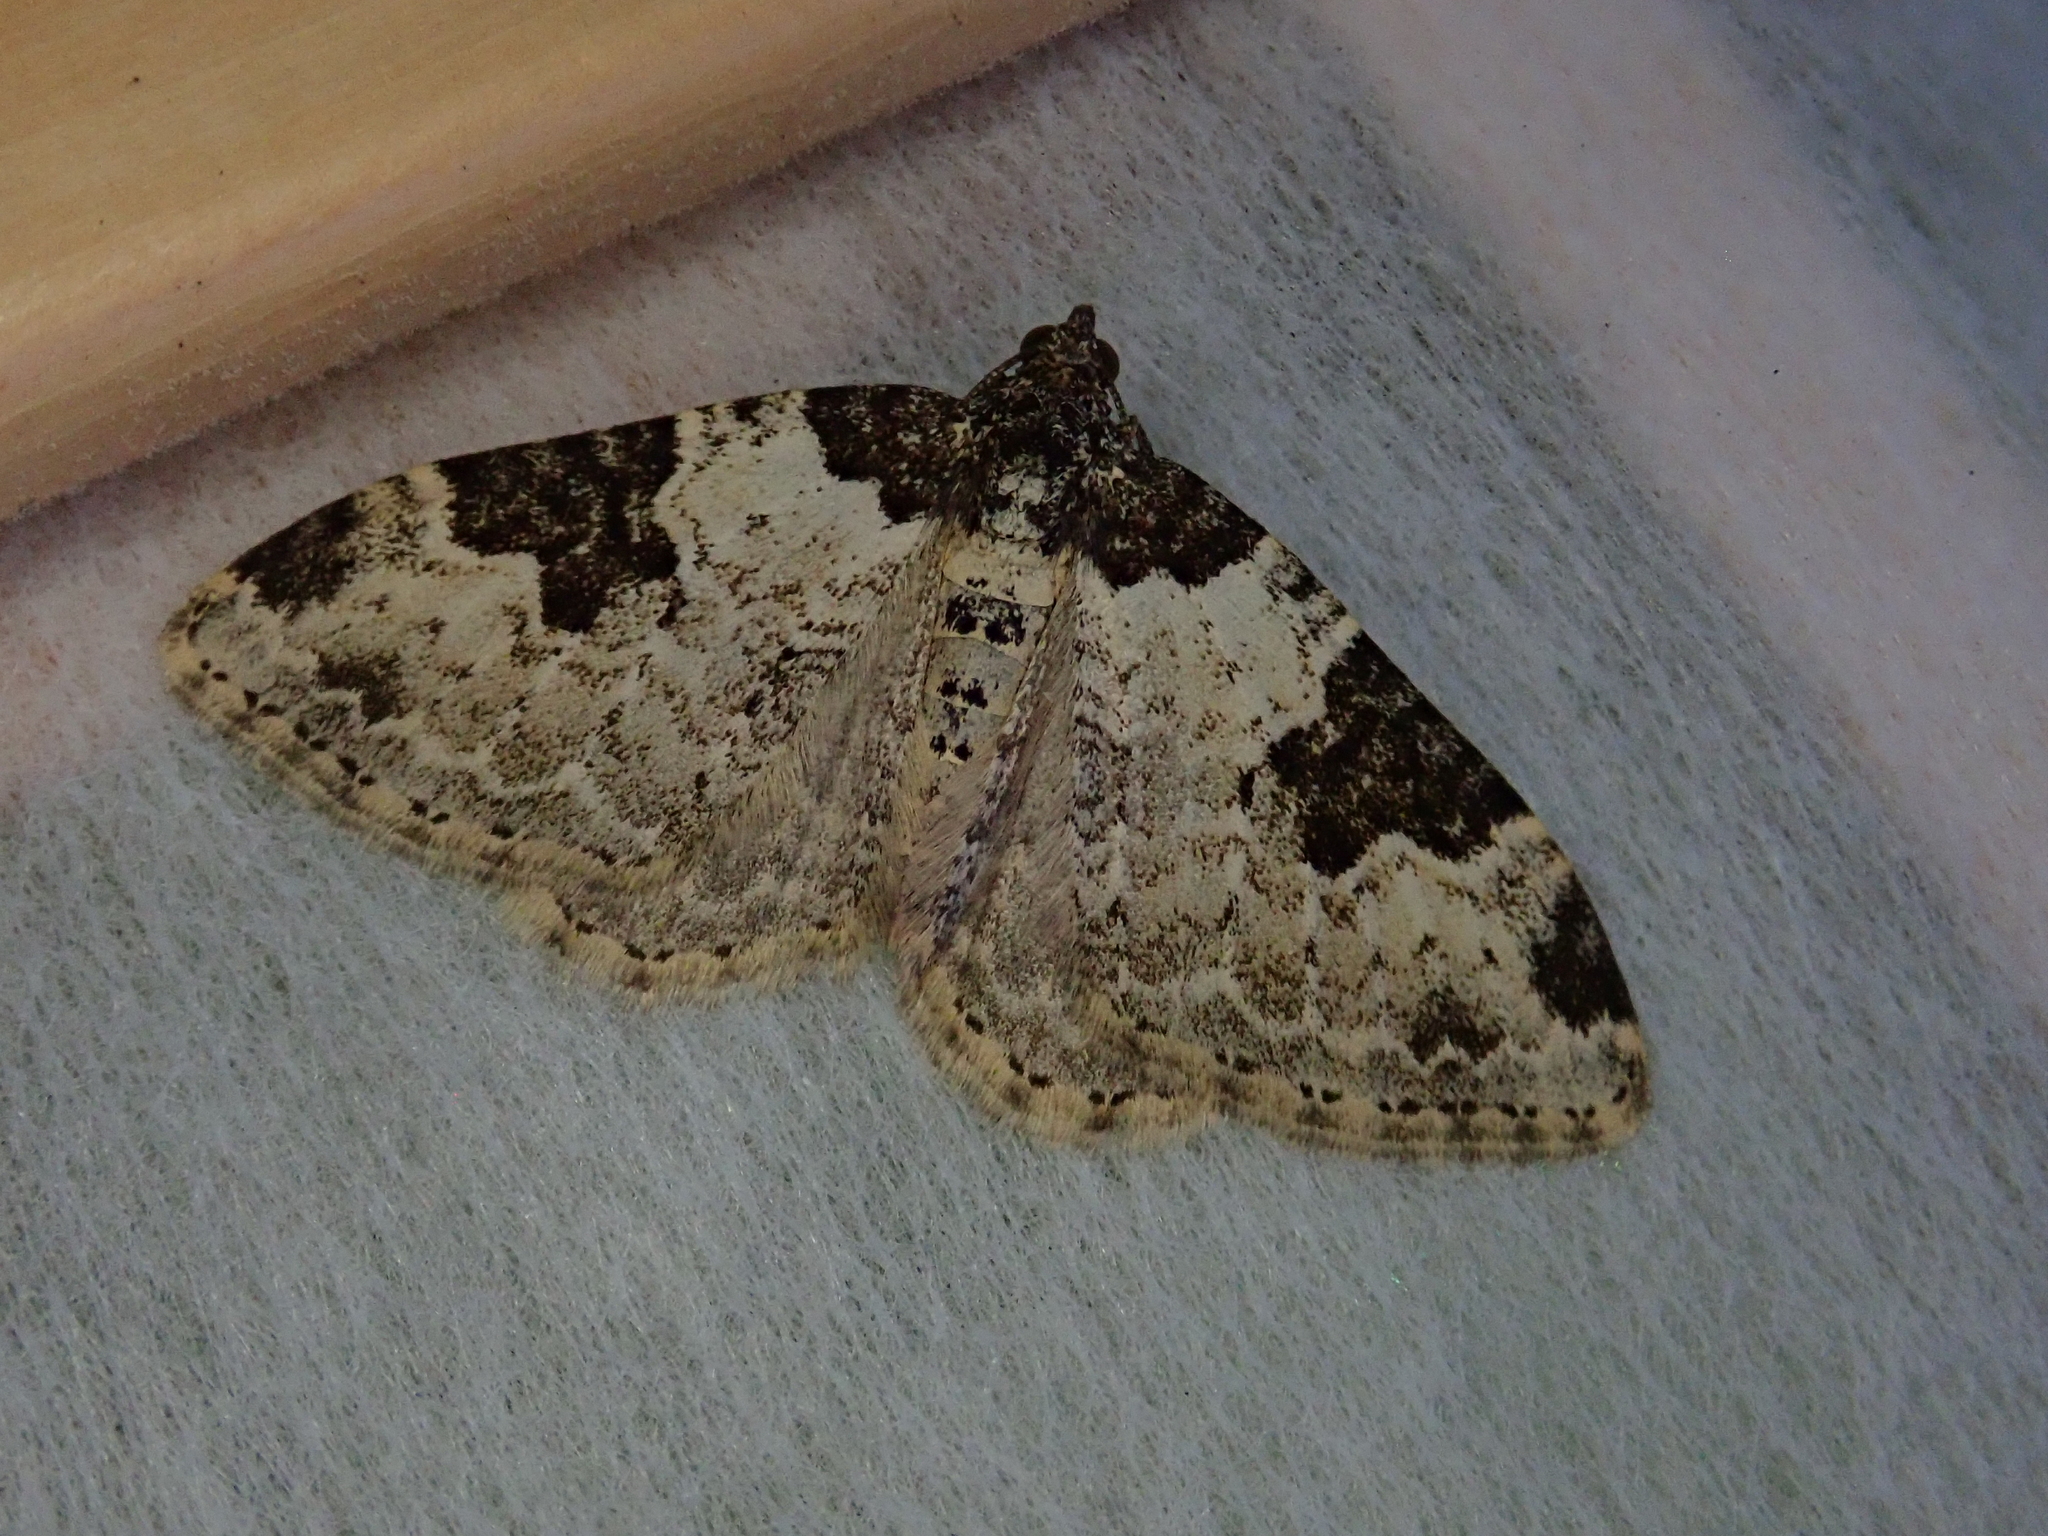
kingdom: Animalia
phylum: Arthropoda
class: Insecta
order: Lepidoptera
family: Geometridae
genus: Xanthorhoe
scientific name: Xanthorhoe fluctuata
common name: Garden carpet
